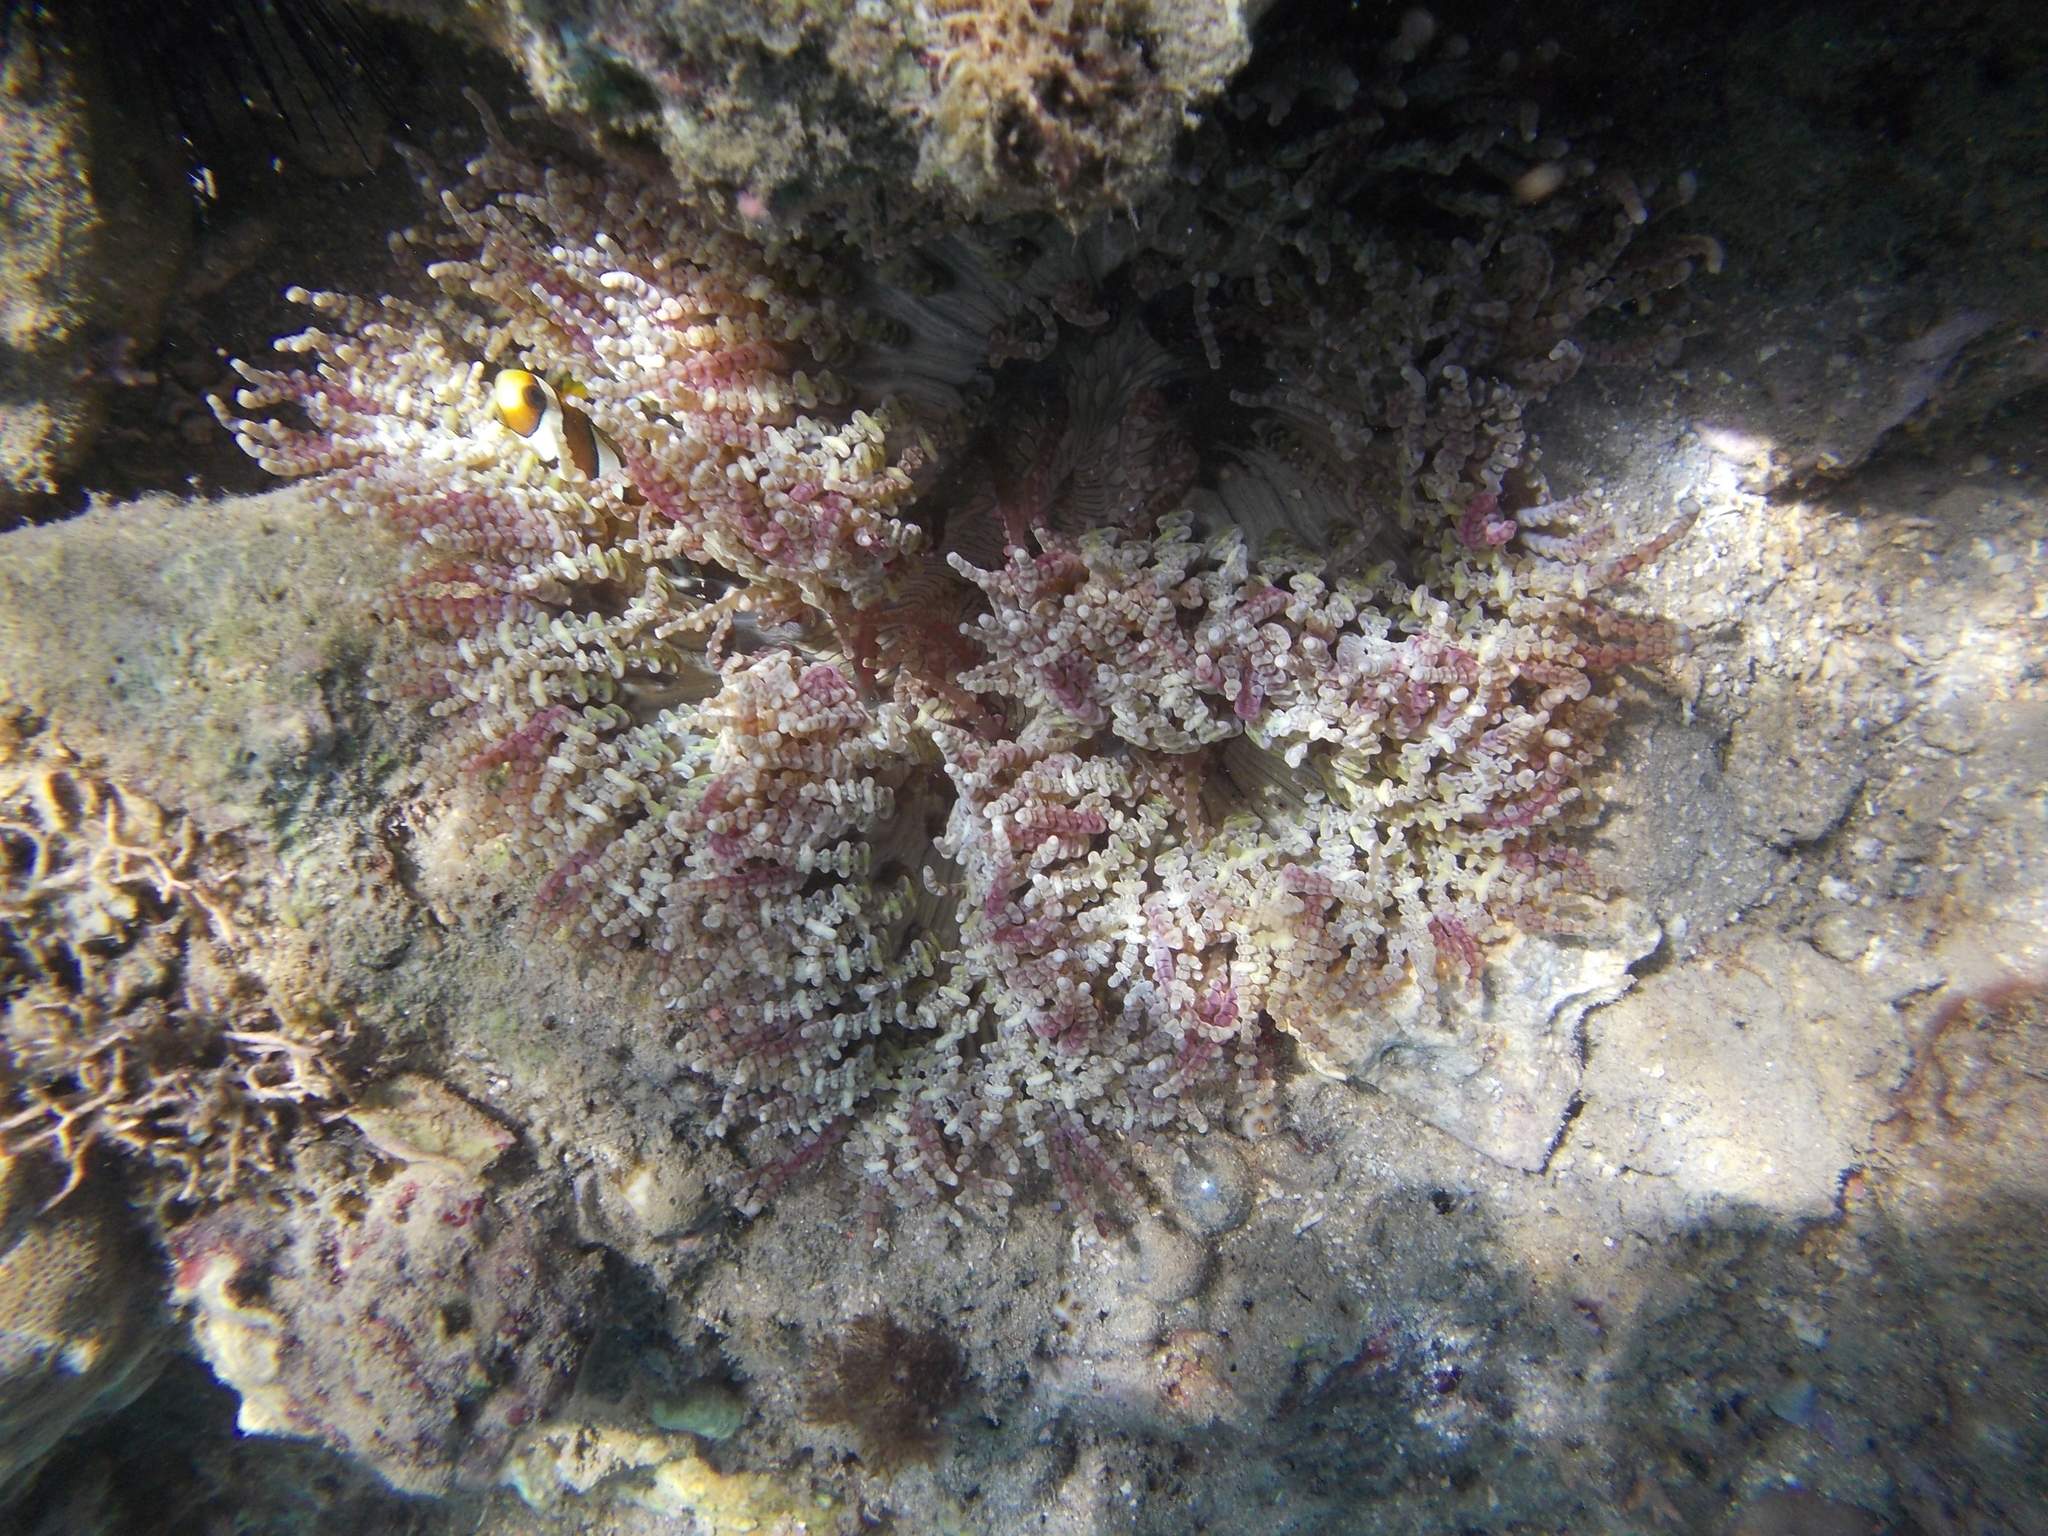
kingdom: Animalia
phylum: Cnidaria
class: Anthozoa
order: Actiniaria
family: Heteractidae
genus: Heteractis
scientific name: Heteractis aurora
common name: Beaded sea anemone
